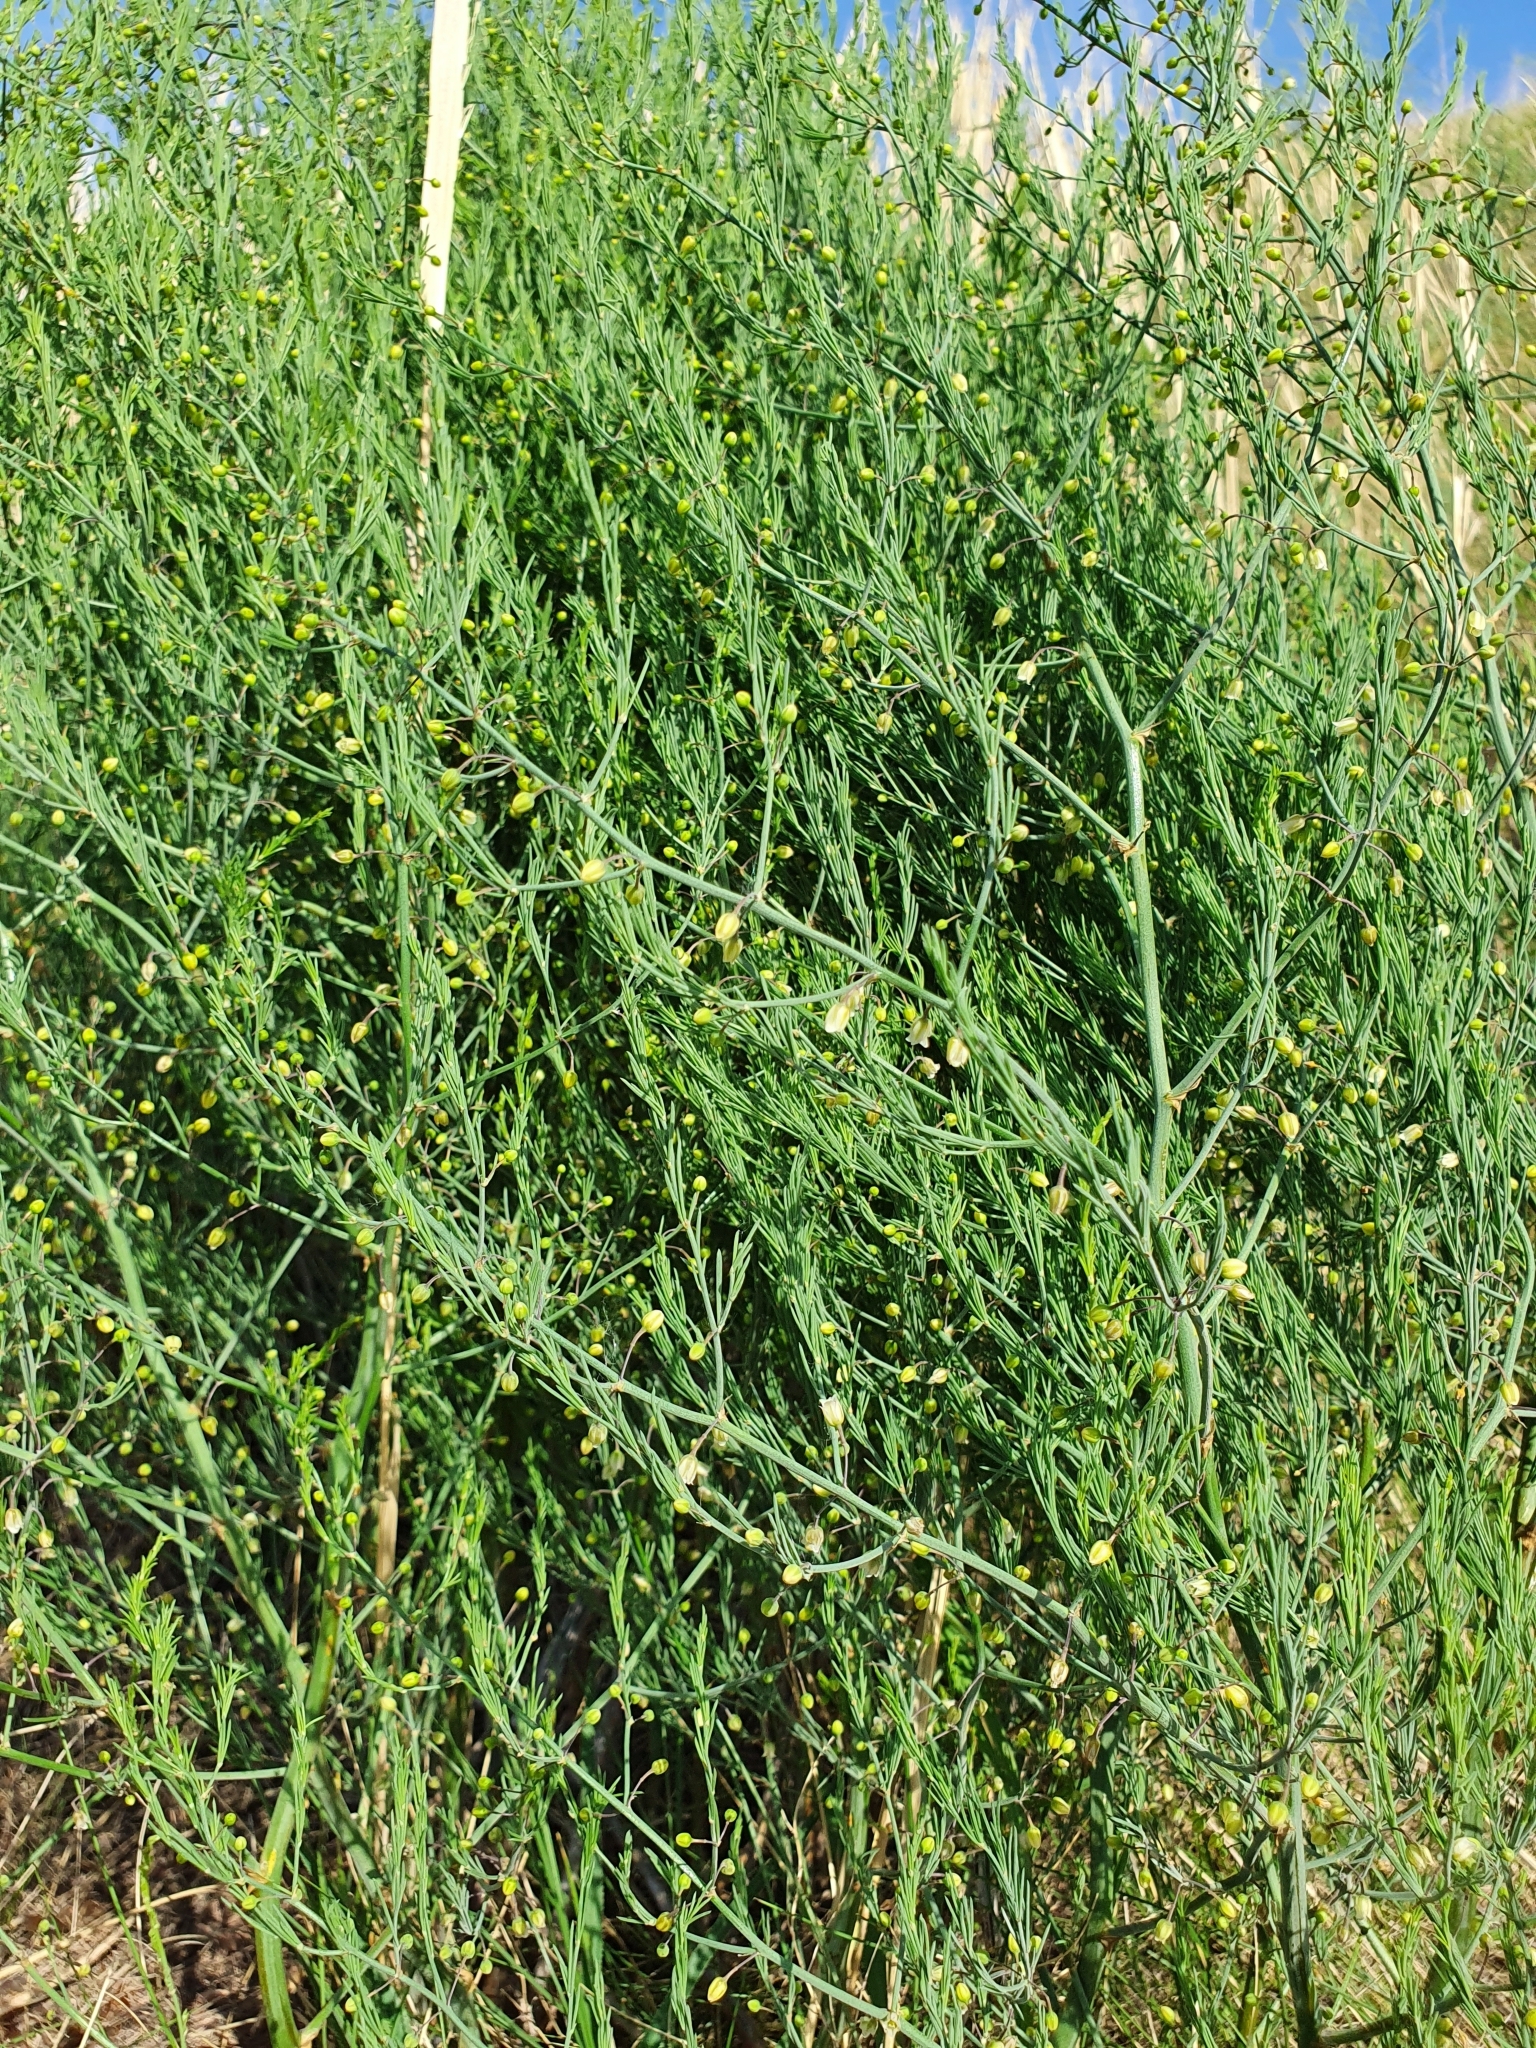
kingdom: Plantae
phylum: Tracheophyta
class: Liliopsida
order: Asparagales
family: Asparagaceae
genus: Asparagus
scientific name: Asparagus officinalis
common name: Garden asparagus
